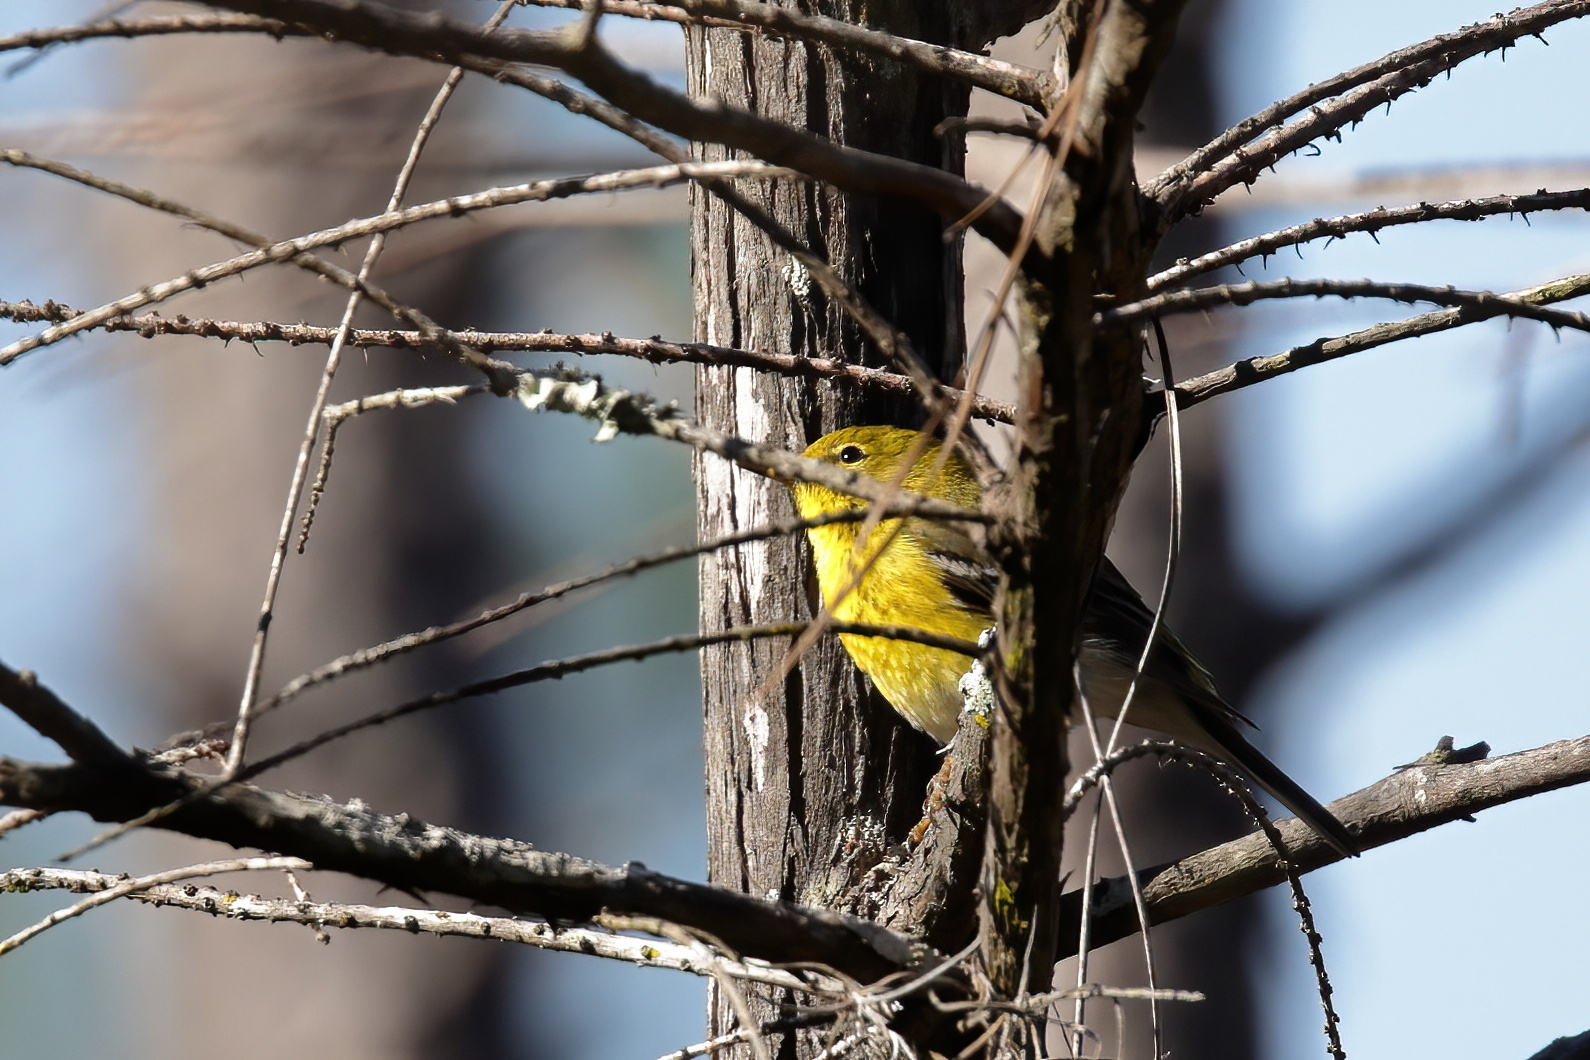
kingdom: Animalia
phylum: Chordata
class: Aves
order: Passeriformes
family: Parulidae
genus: Setophaga
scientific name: Setophaga pinus
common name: Pine warbler
